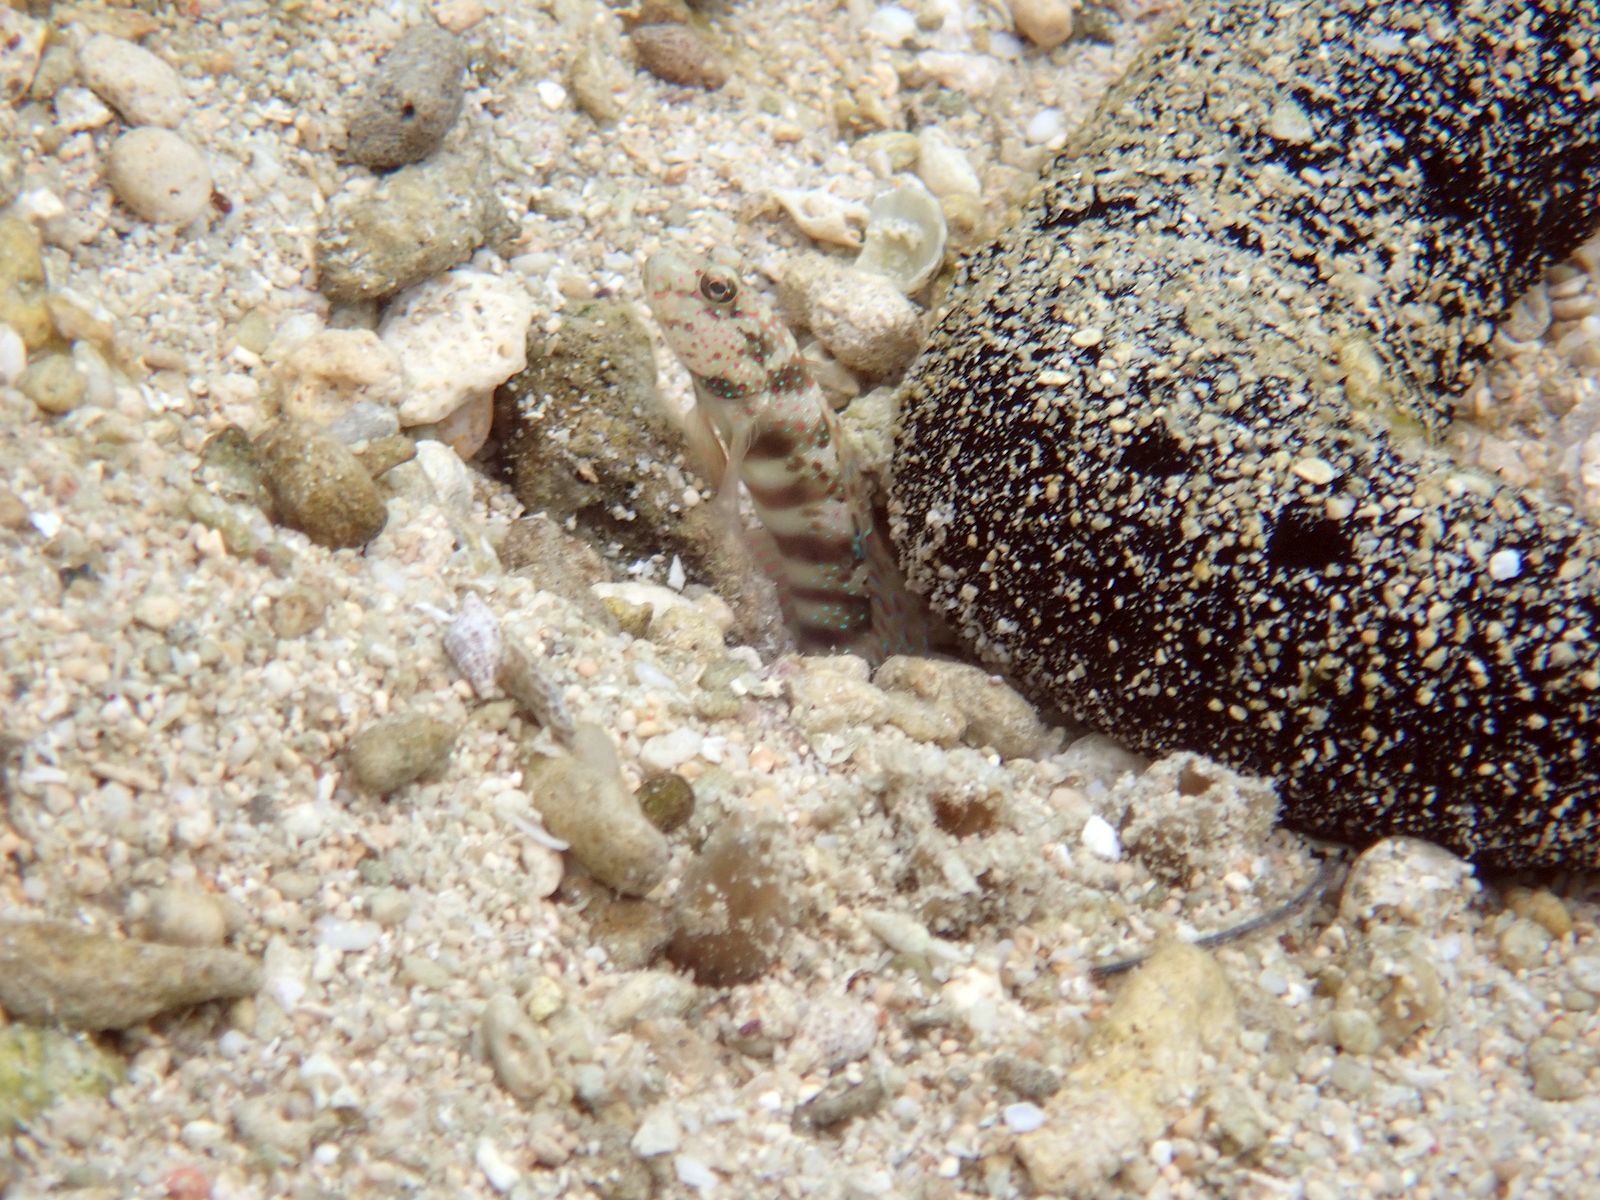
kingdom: Animalia
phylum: Chordata
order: Perciformes
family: Gobiidae
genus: Cryptocentrus
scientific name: Cryptocentrus leptocephalus
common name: Leptocephalus prawn-goby
